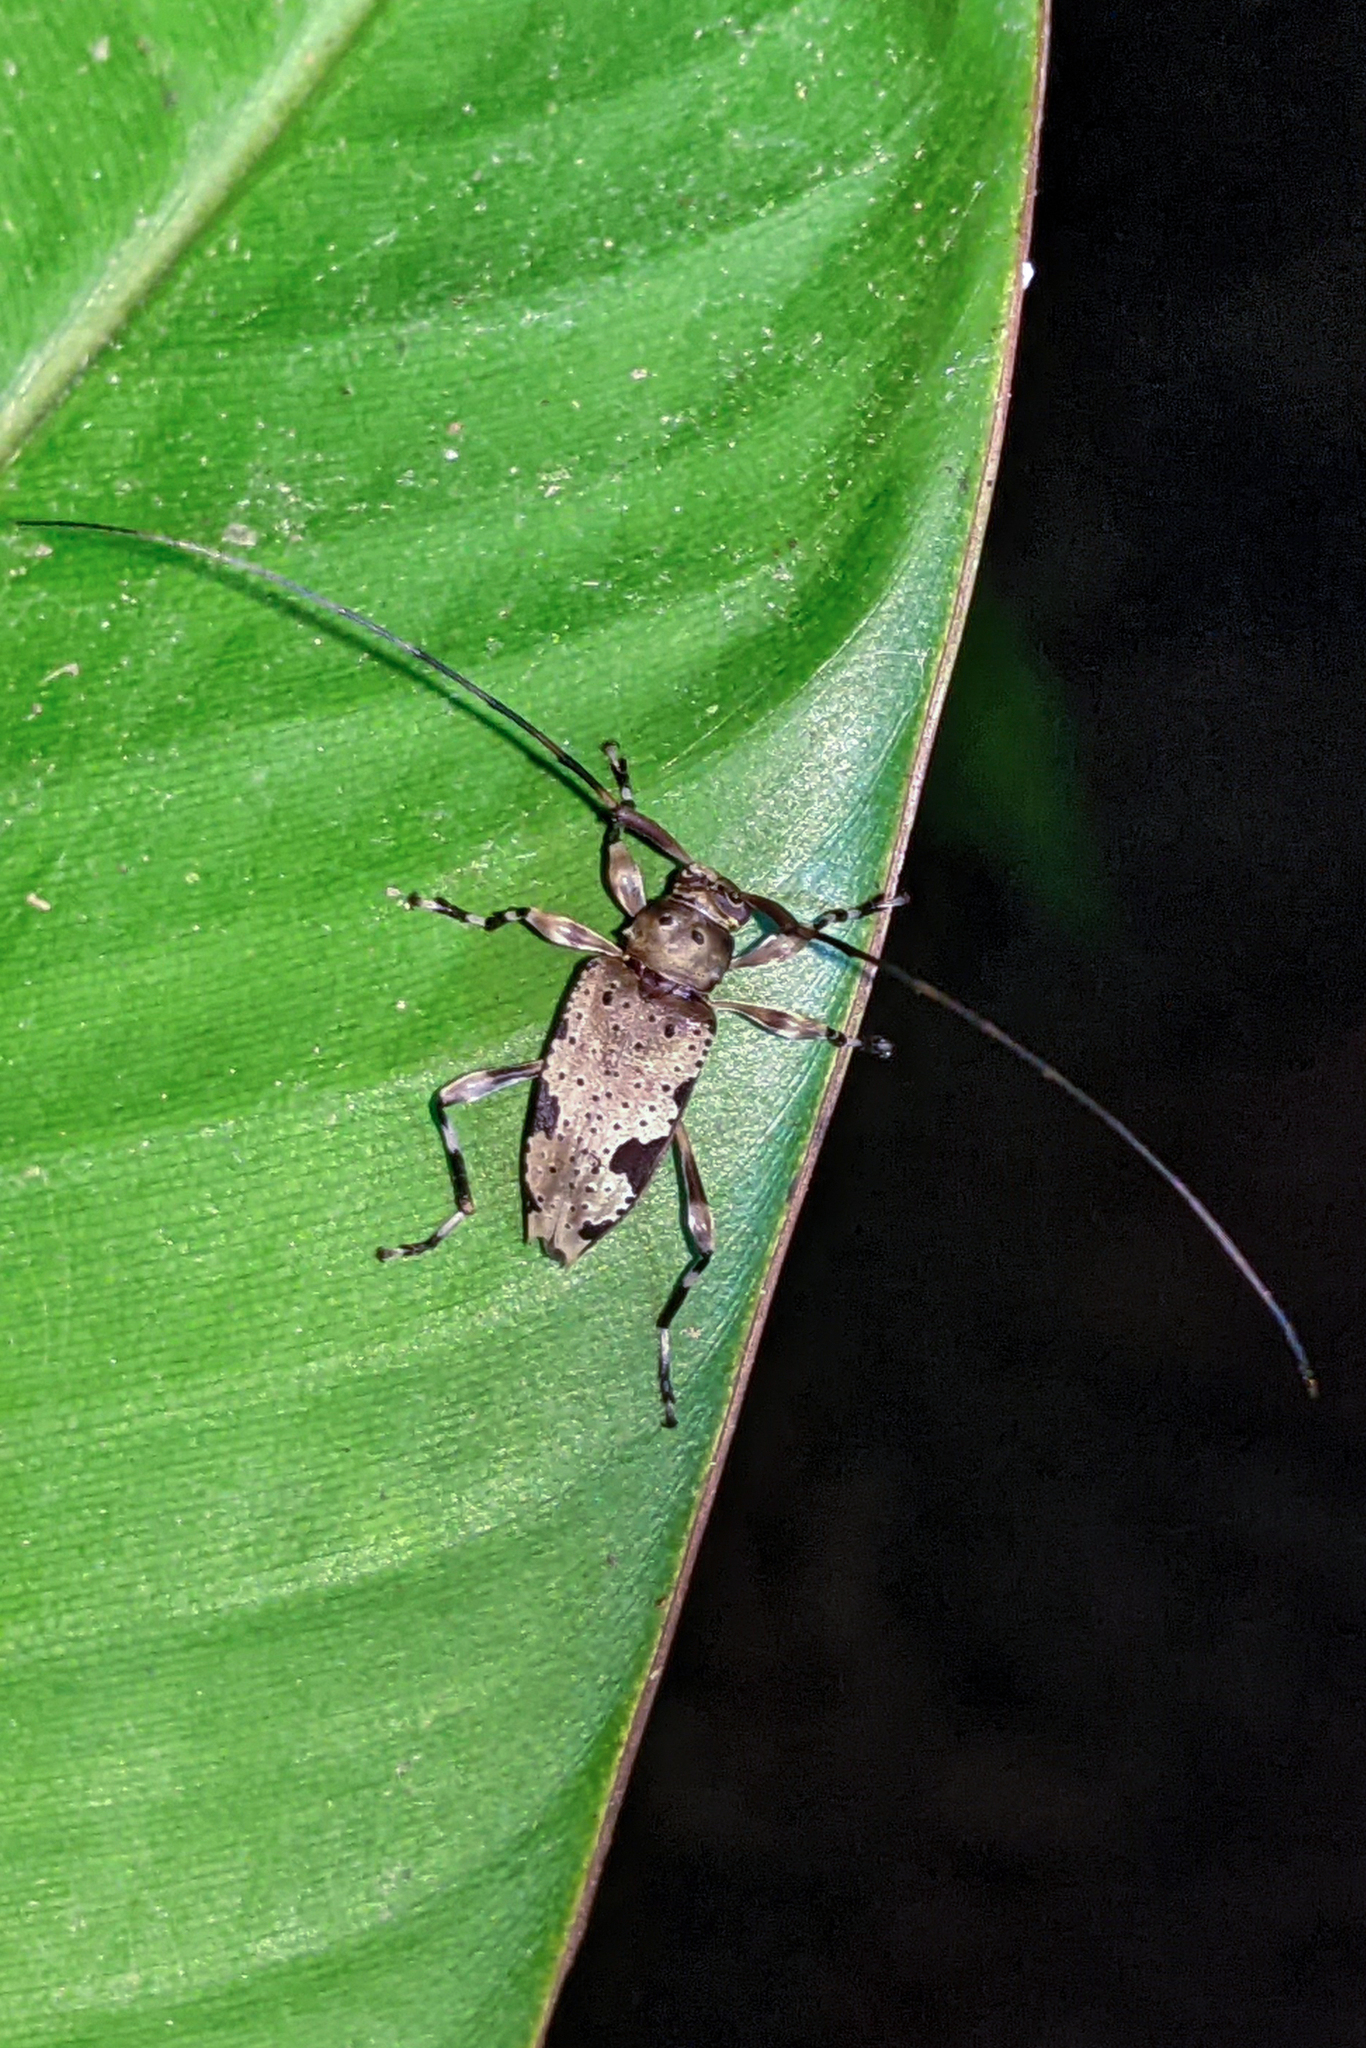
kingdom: Animalia
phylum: Arthropoda
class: Insecta
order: Coleoptera
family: Cerambycidae
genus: Anisopodus
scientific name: Anisopodus batesi
